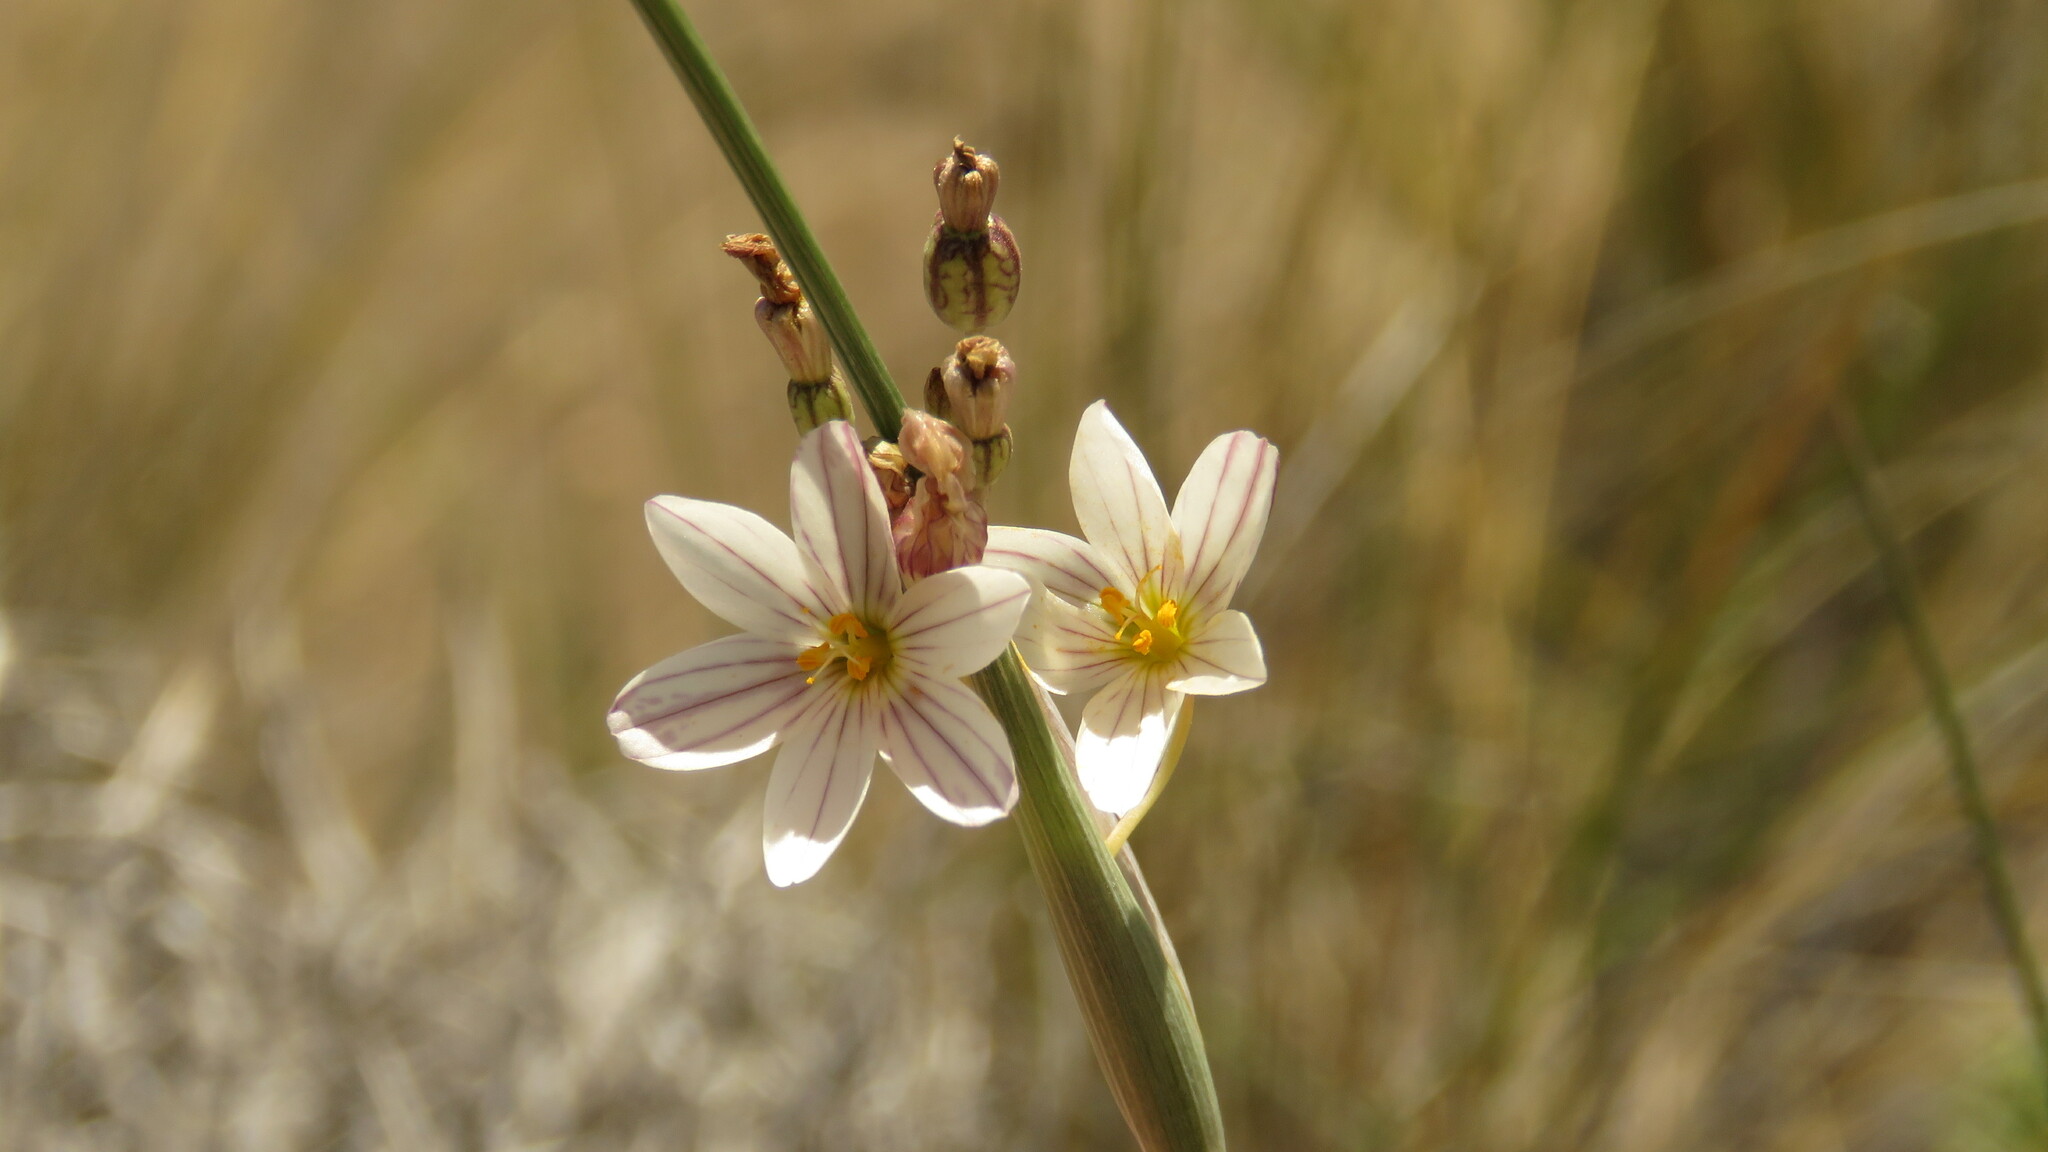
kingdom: Plantae
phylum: Tracheophyta
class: Liliopsida
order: Asparagales
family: Iridaceae
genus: Olsynium
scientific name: Olsynium junceum
